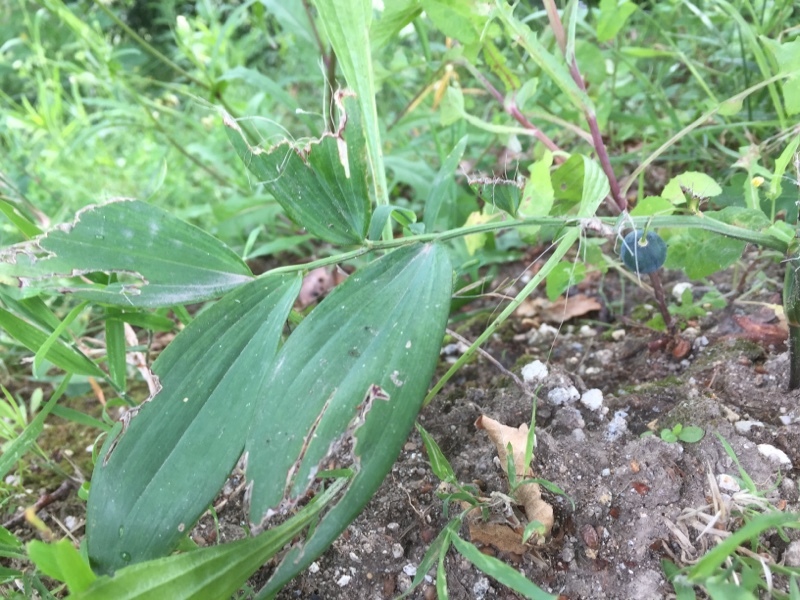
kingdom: Plantae
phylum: Tracheophyta
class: Liliopsida
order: Asparagales
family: Asparagaceae
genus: Polygonatum
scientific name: Polygonatum odoratum
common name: Angular solomon's-seal
